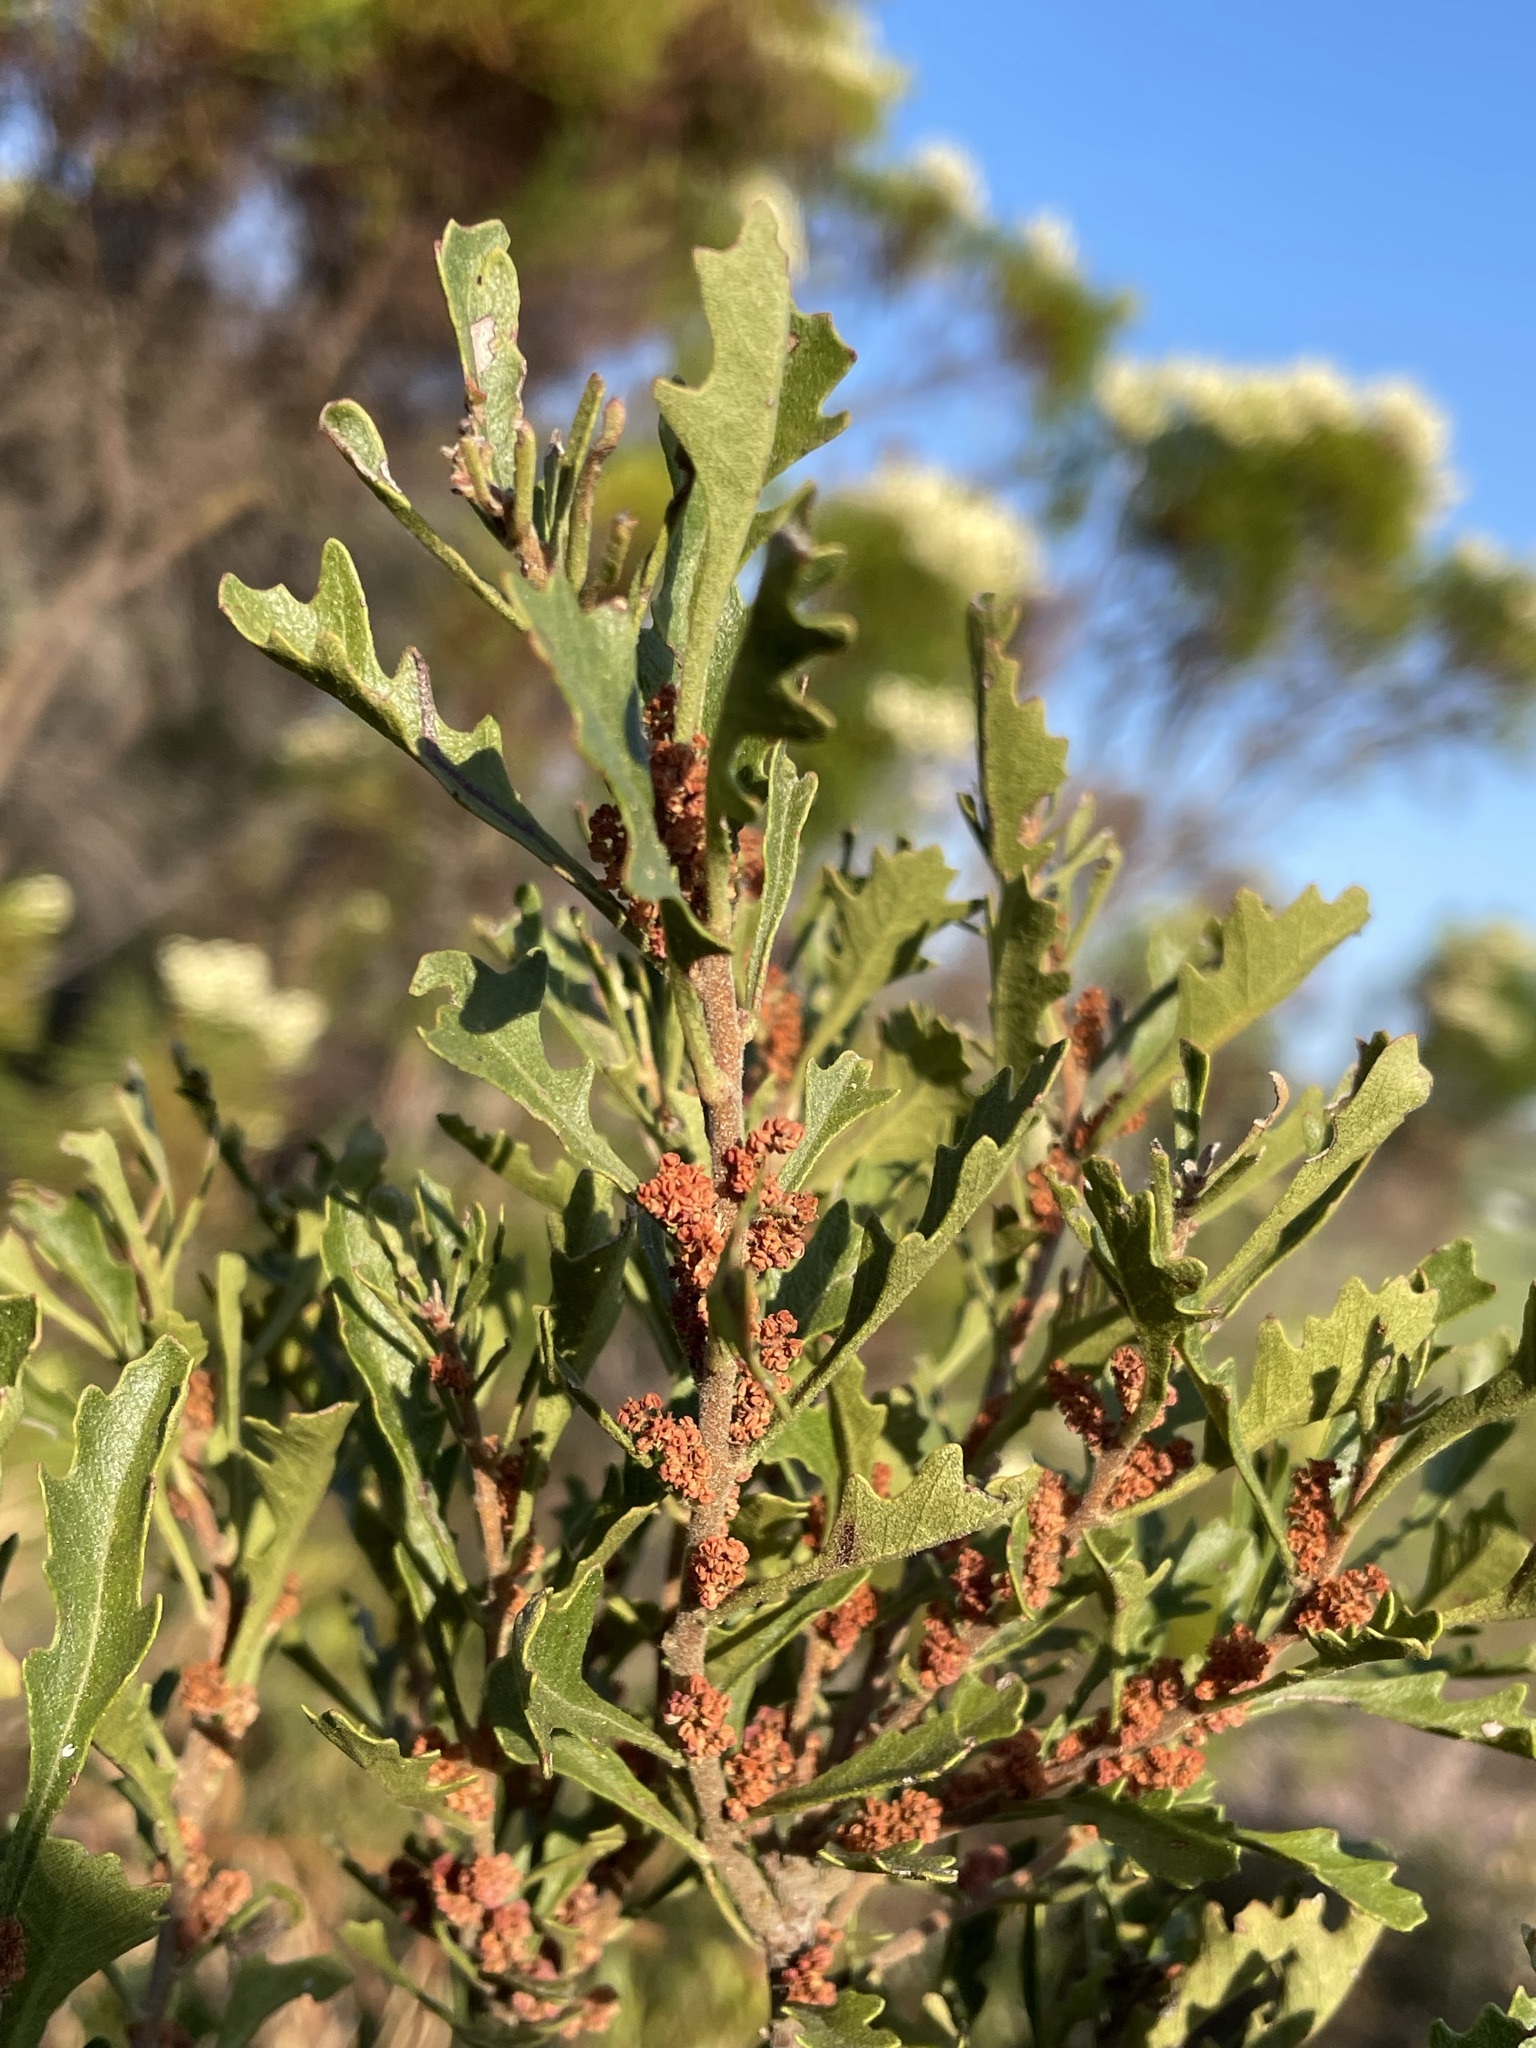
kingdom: Plantae
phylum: Tracheophyta
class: Magnoliopsida
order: Fagales
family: Myricaceae
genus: Morella
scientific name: Morella quercifolia
